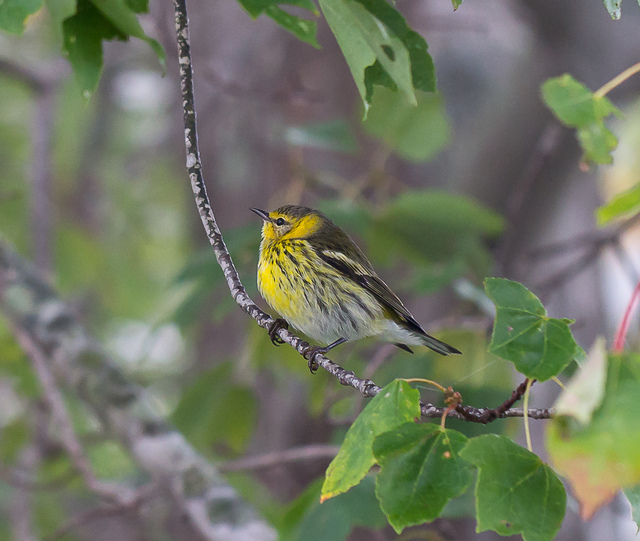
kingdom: Animalia
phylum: Chordata
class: Aves
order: Passeriformes
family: Parulidae
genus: Setophaga
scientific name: Setophaga tigrina
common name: Cape may warbler
